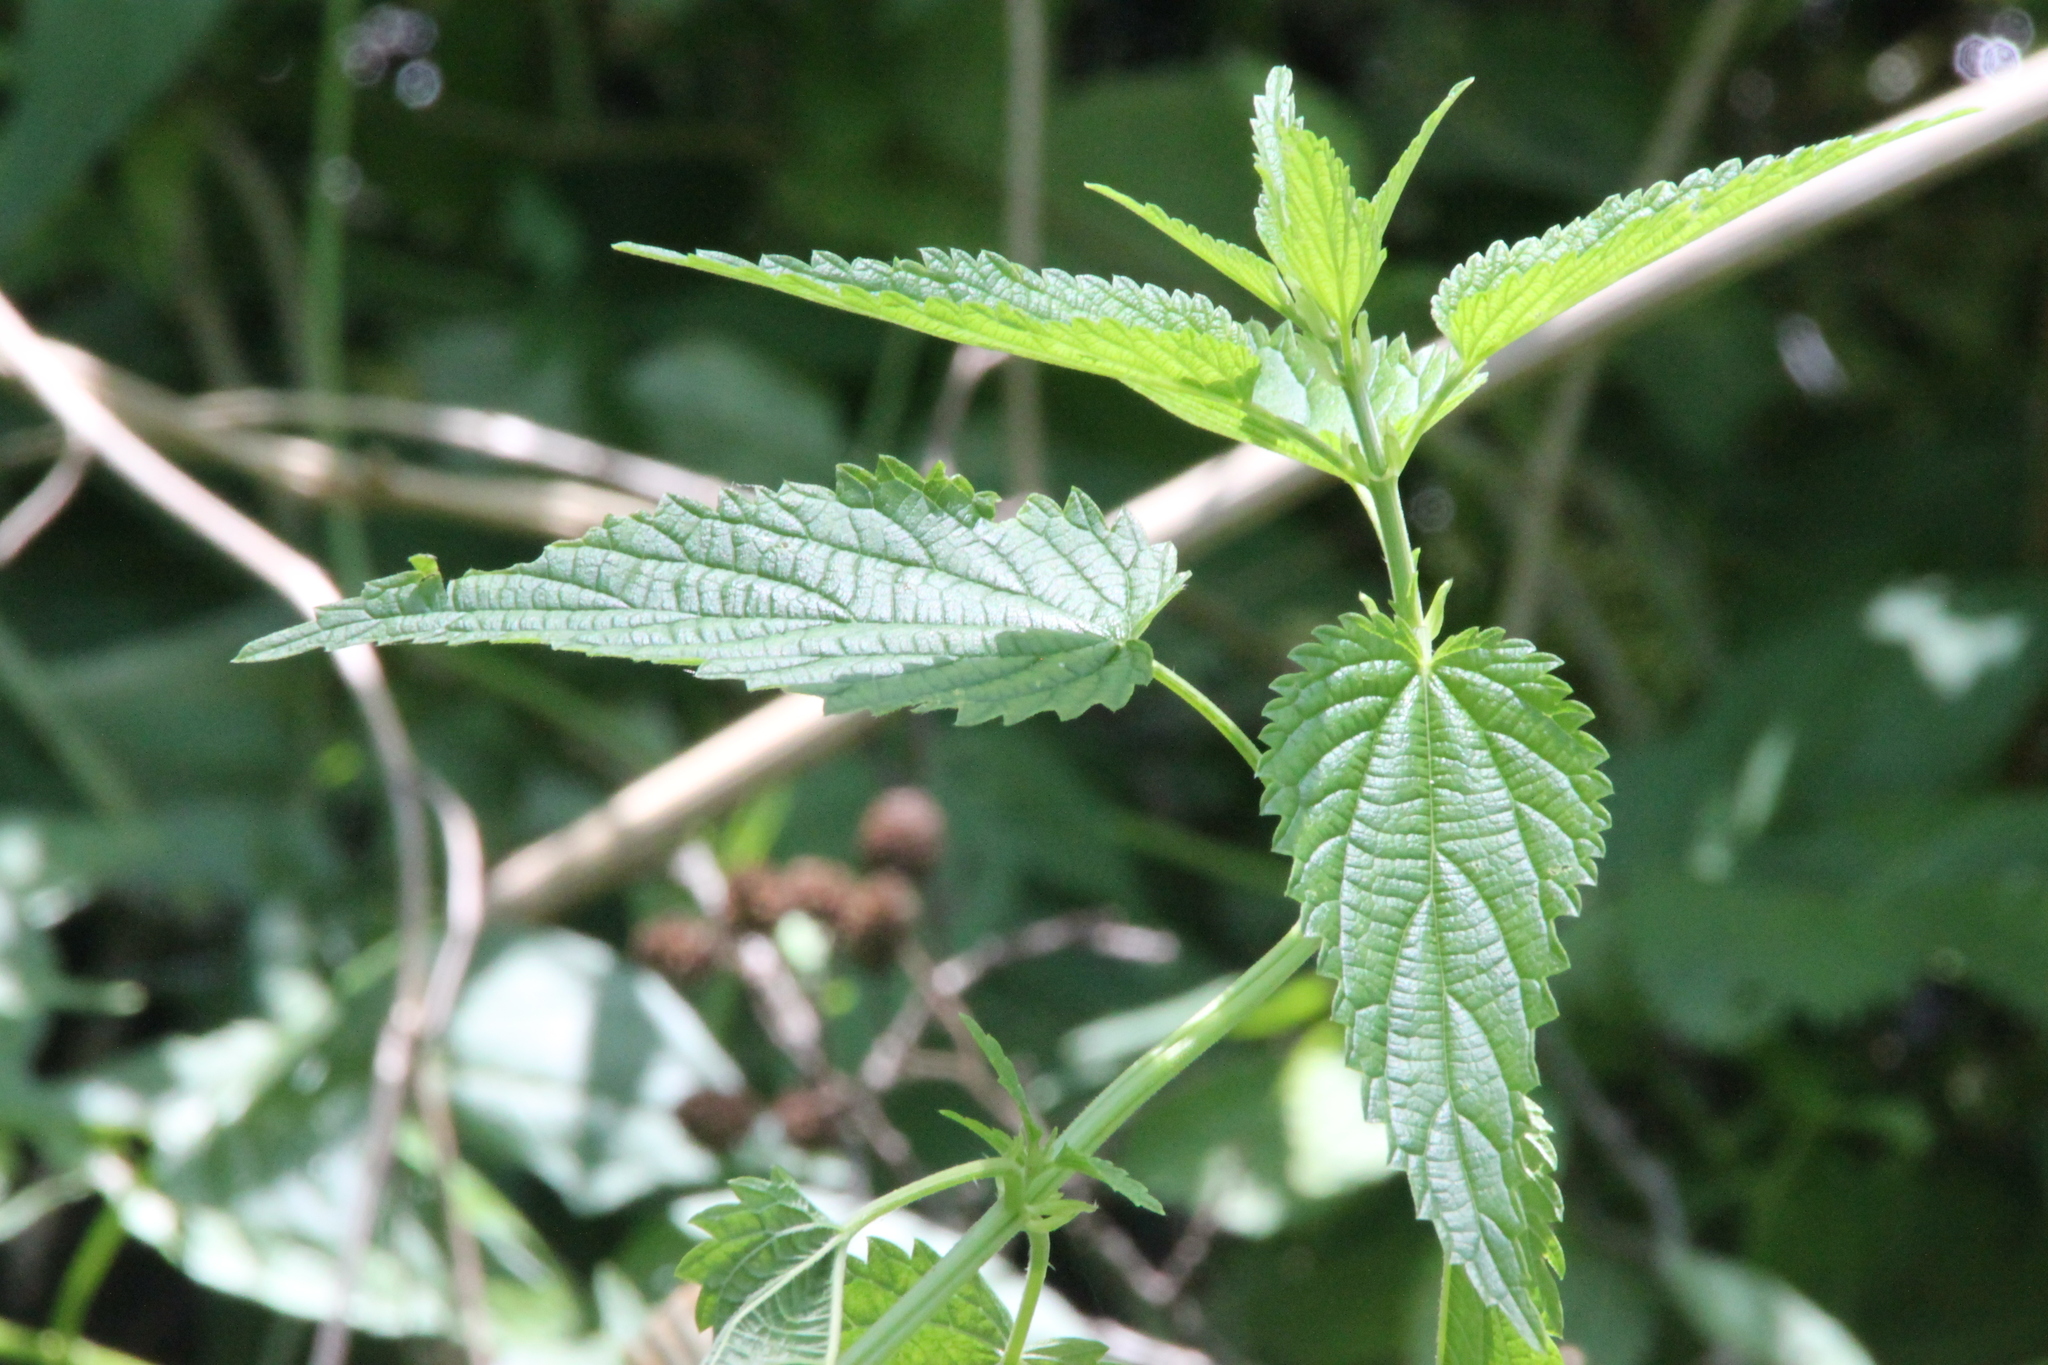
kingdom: Plantae
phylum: Tracheophyta
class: Magnoliopsida
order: Rosales
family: Urticaceae
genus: Urtica
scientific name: Urtica dioica
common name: Common nettle
